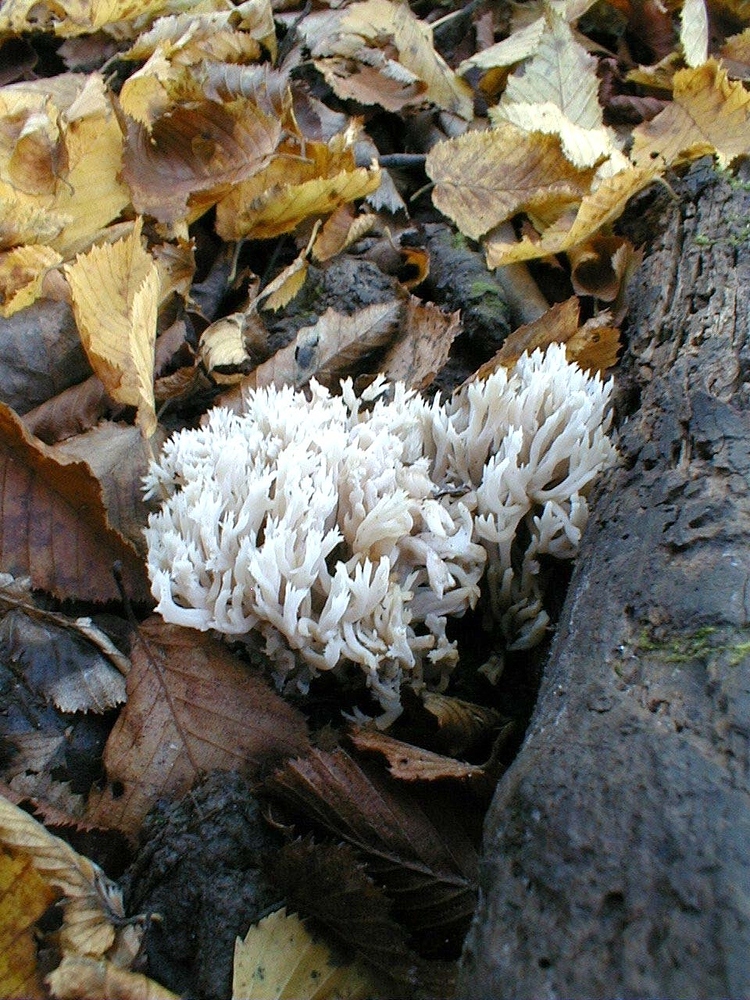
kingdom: Fungi
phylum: Basidiomycota
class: Agaricomycetes
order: Cantharellales
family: Hydnaceae
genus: Clavulina
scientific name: Clavulina coralloides
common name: Crested coral
